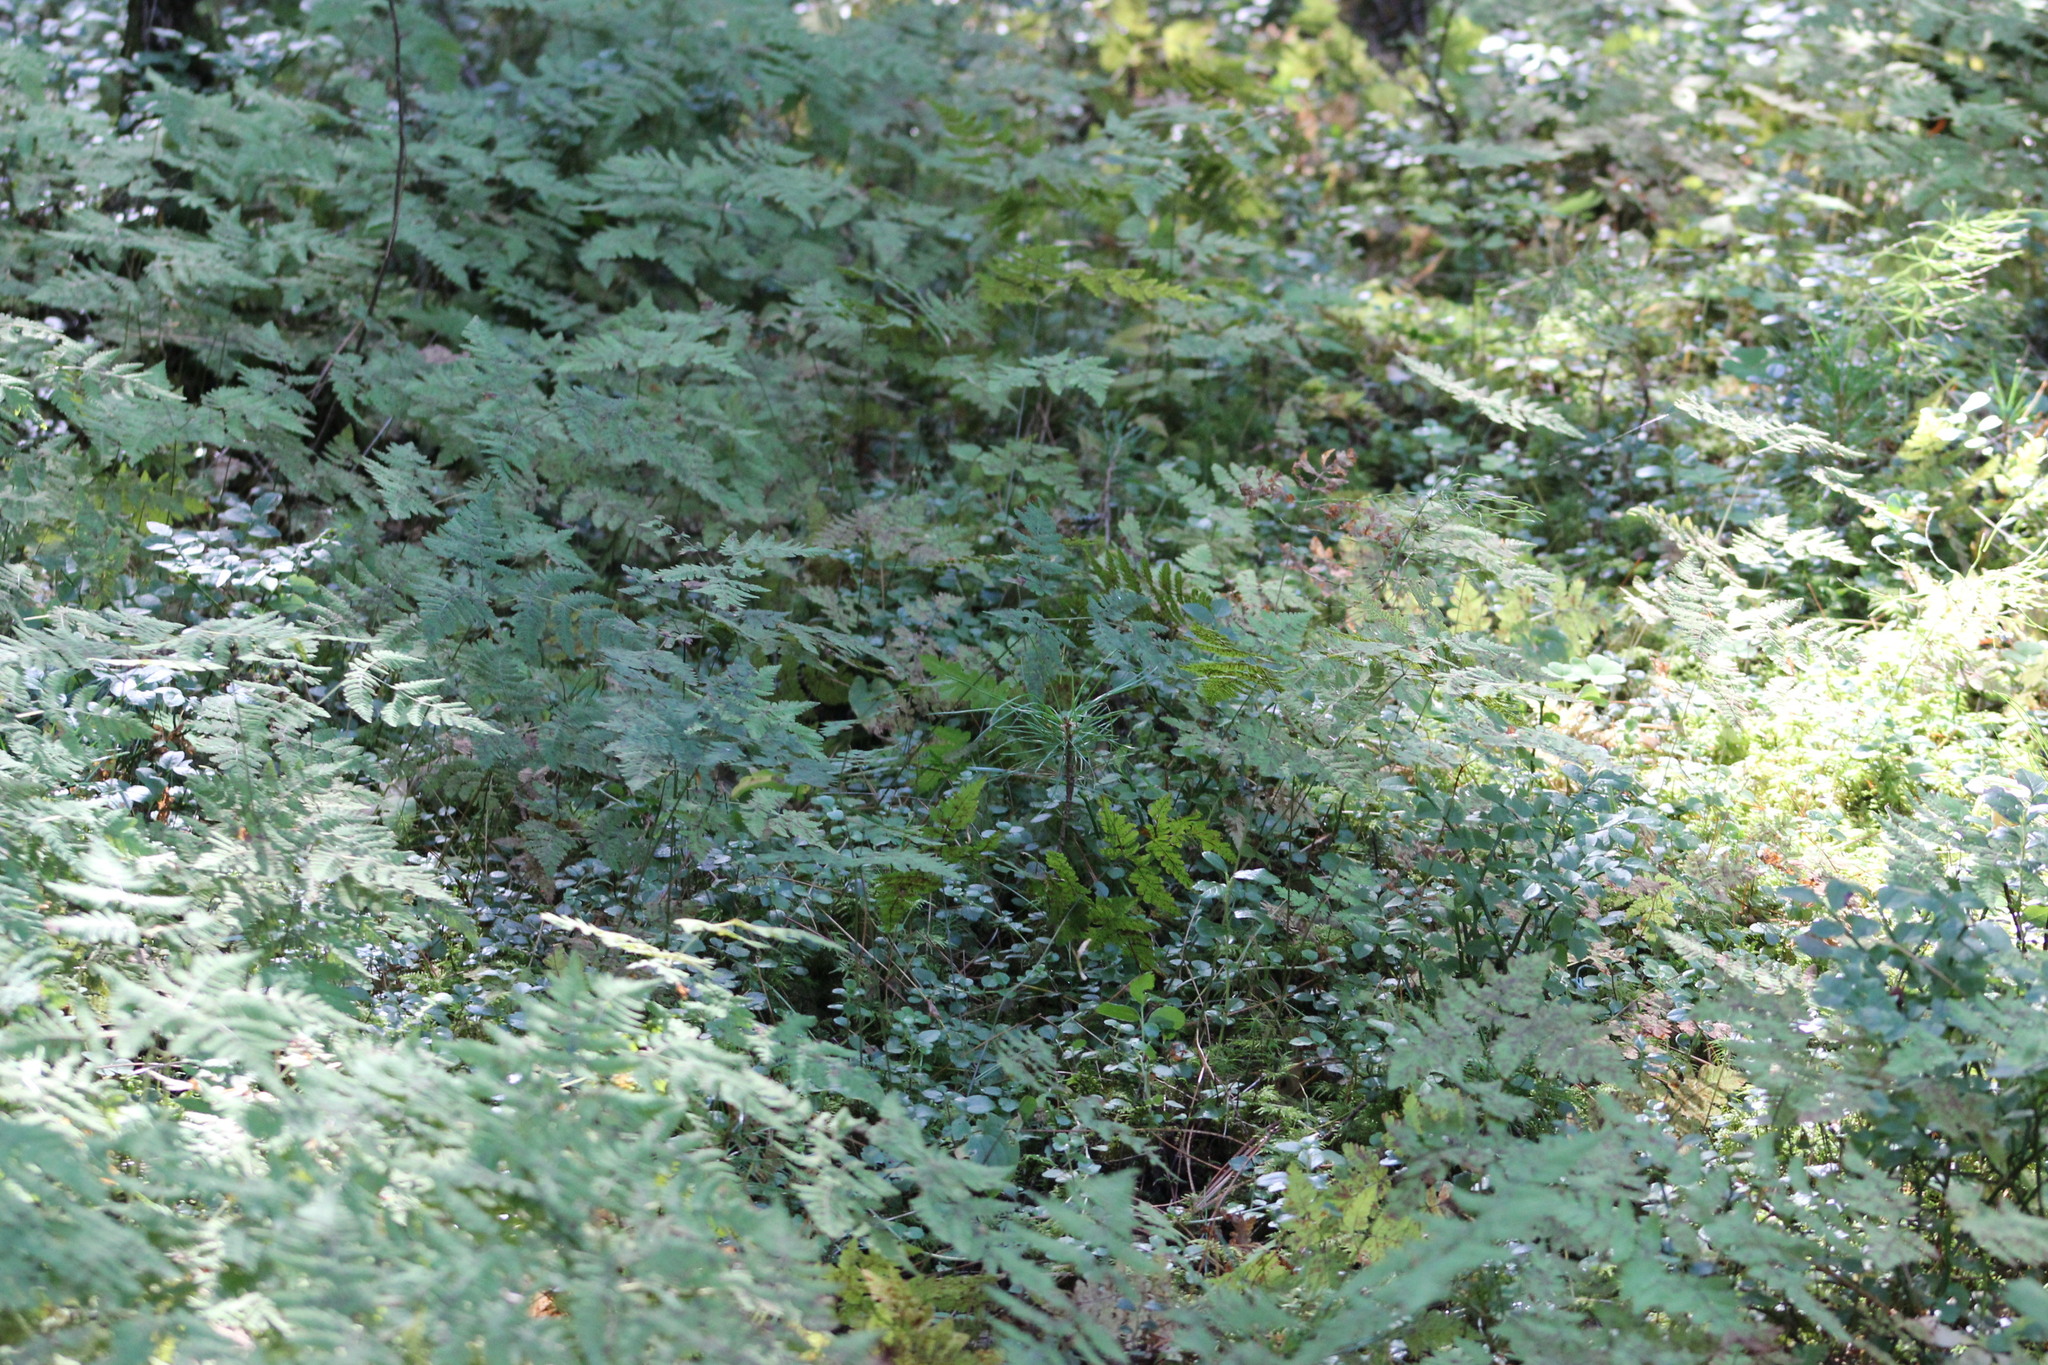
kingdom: Plantae
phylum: Tracheophyta
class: Polypodiopsida
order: Polypodiales
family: Cystopteridaceae
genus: Gymnocarpium
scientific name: Gymnocarpium dryopteris
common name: Oak fern
